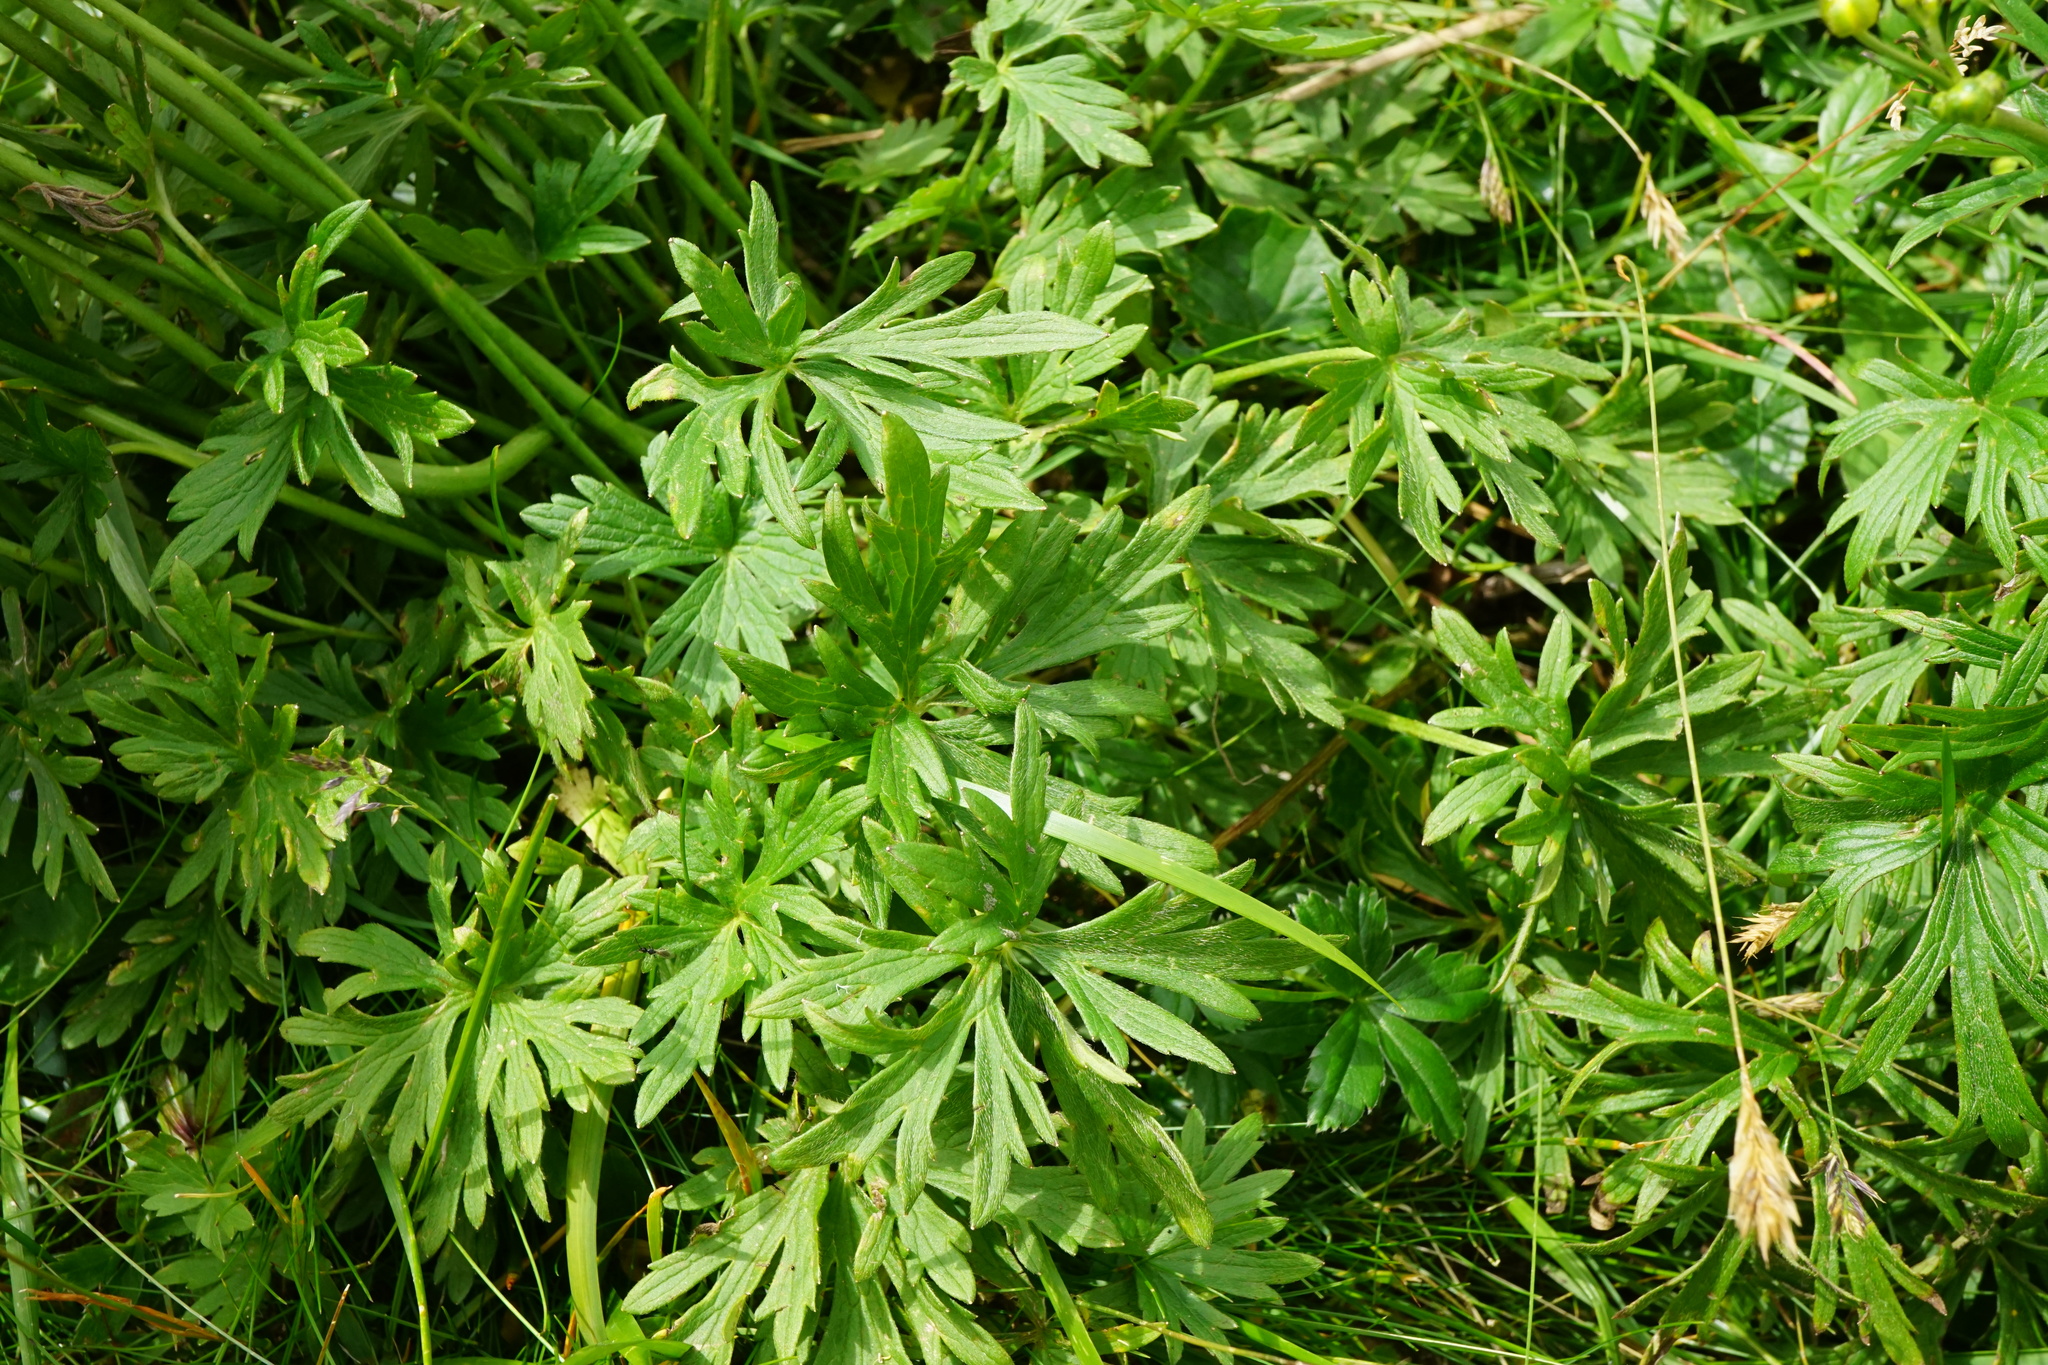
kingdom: Plantae
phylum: Tracheophyta
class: Magnoliopsida
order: Ranunculales
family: Ranunculaceae
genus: Ranunculus
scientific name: Ranunculus acris
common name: Meadow buttercup
